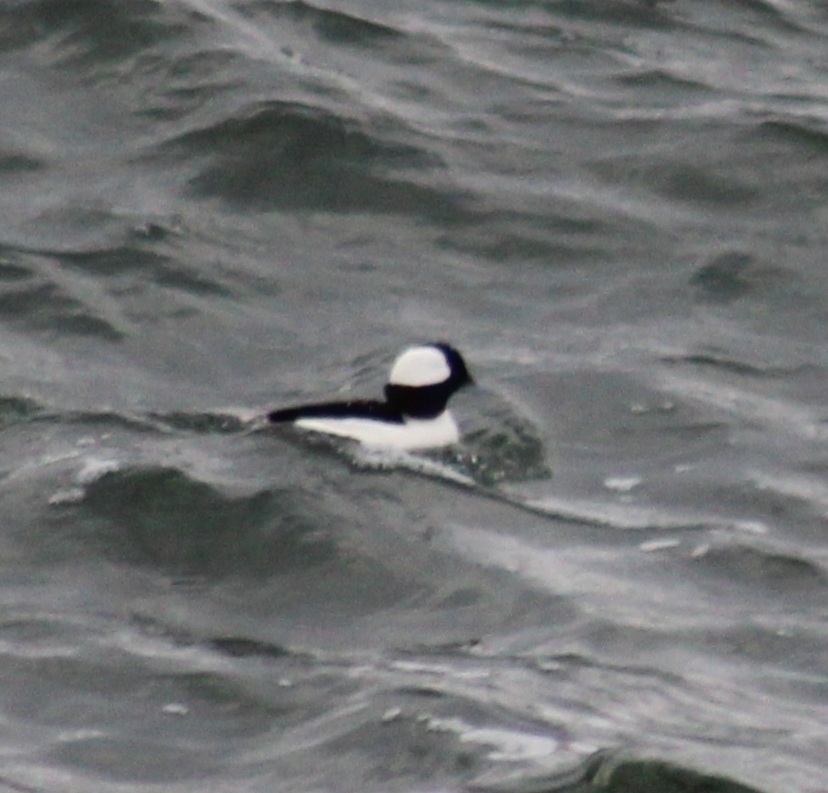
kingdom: Animalia
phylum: Chordata
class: Aves
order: Anseriformes
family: Anatidae
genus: Bucephala
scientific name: Bucephala albeola
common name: Bufflehead
